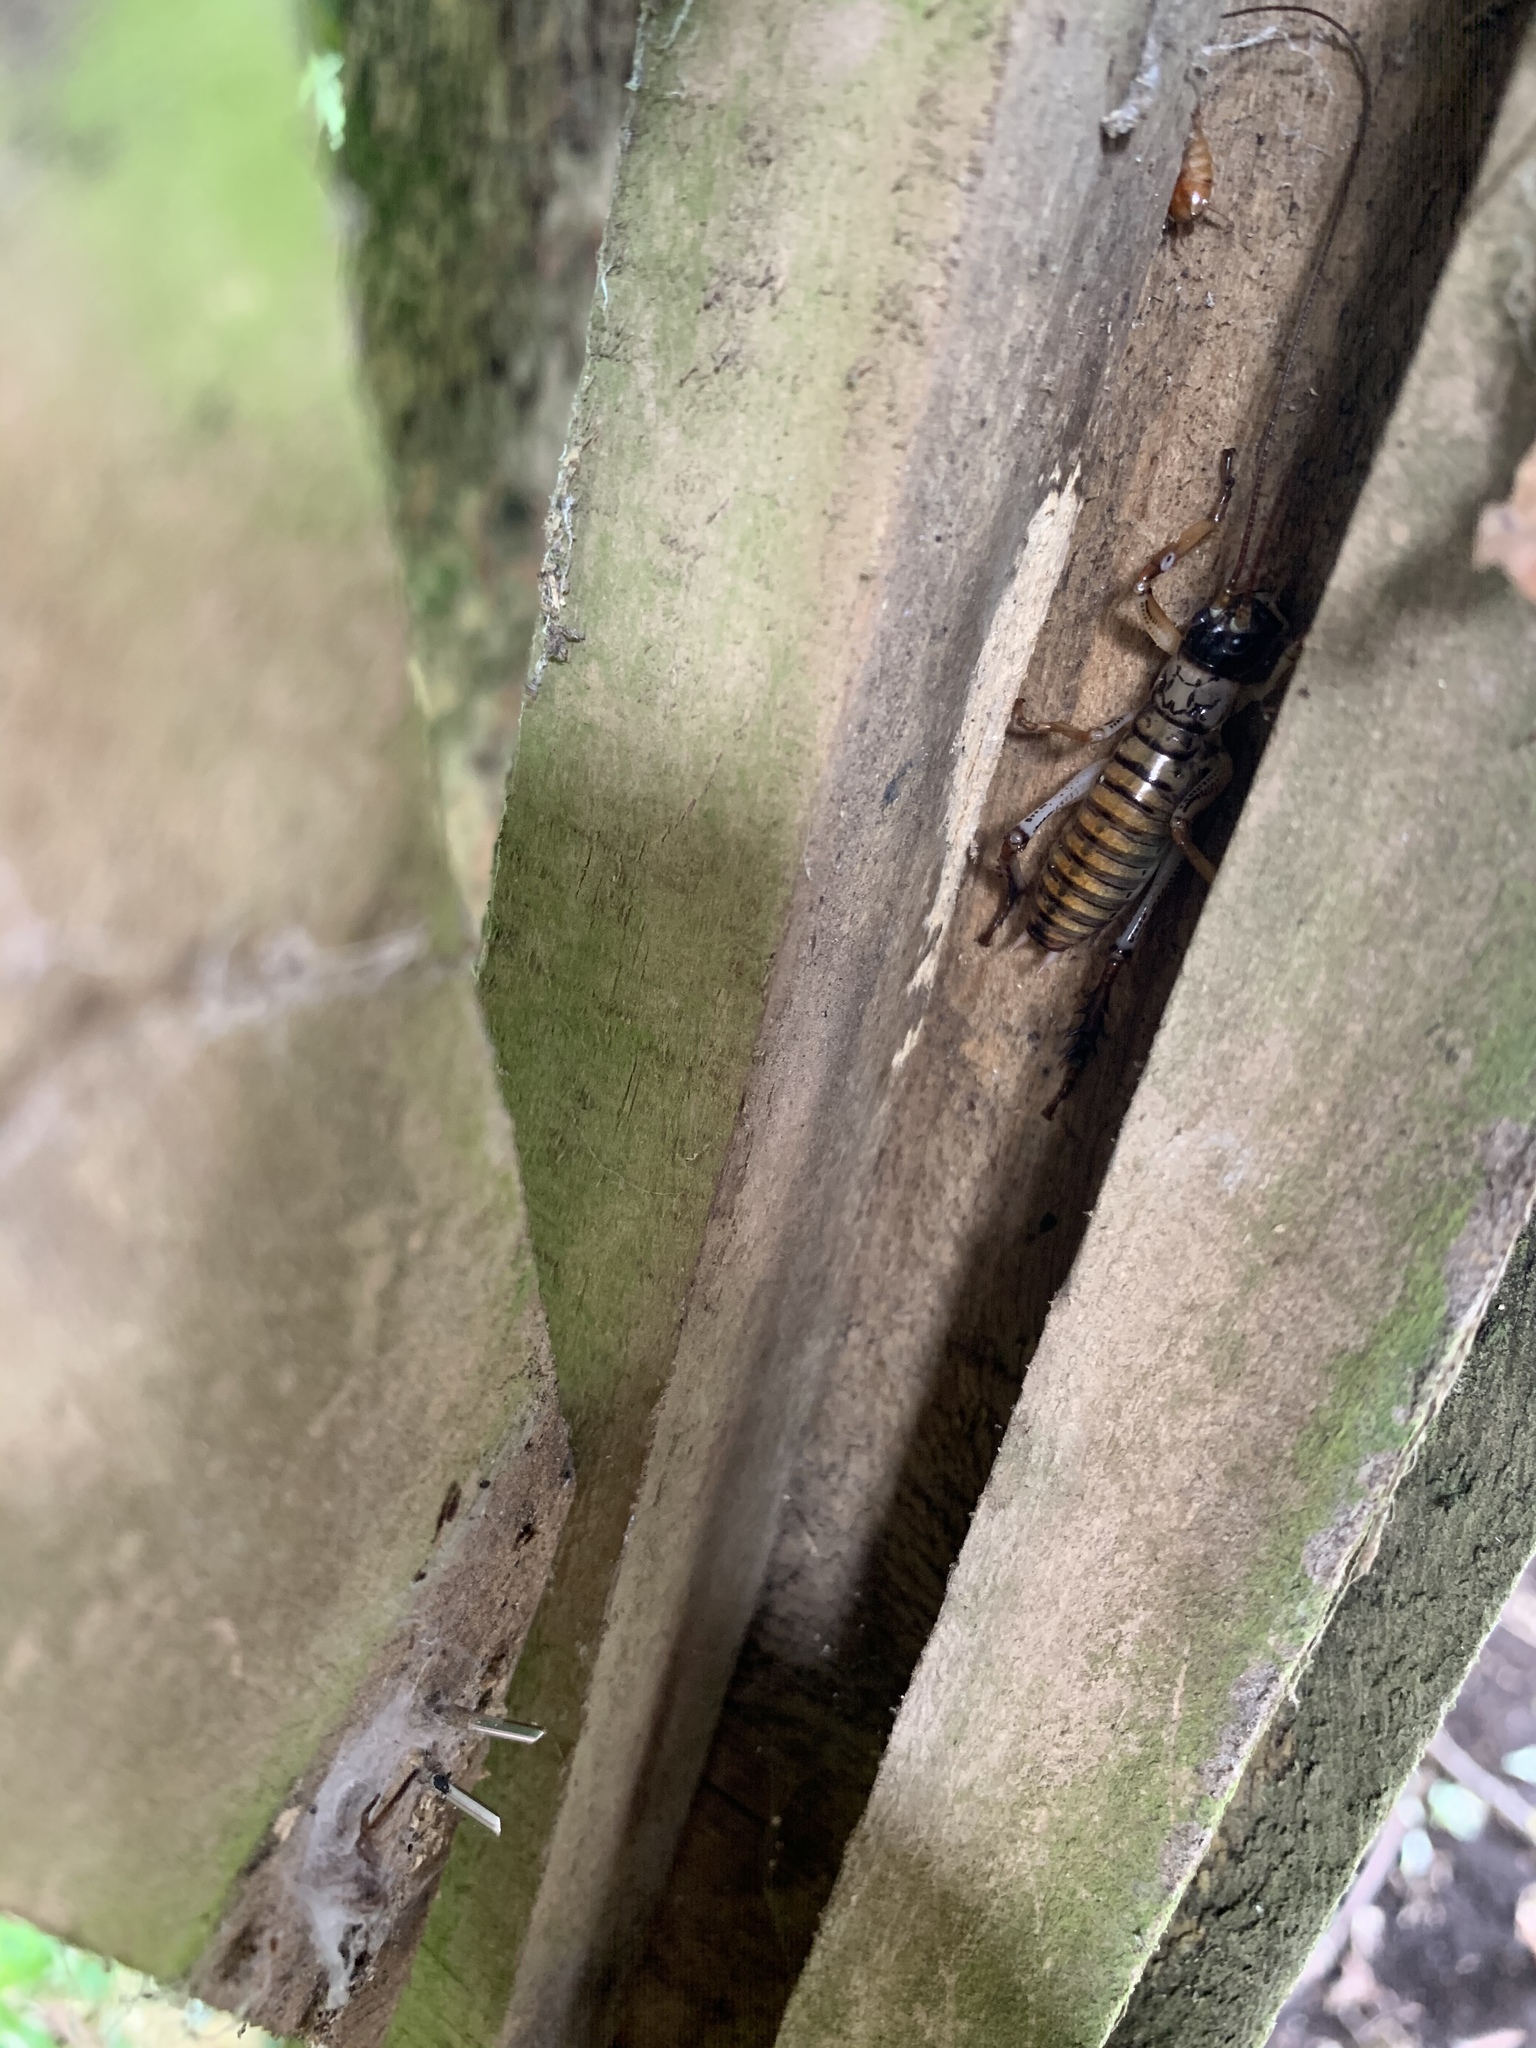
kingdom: Animalia
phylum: Arthropoda
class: Insecta
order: Orthoptera
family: Anostostomatidae
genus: Hemideina
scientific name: Hemideina thoracica
